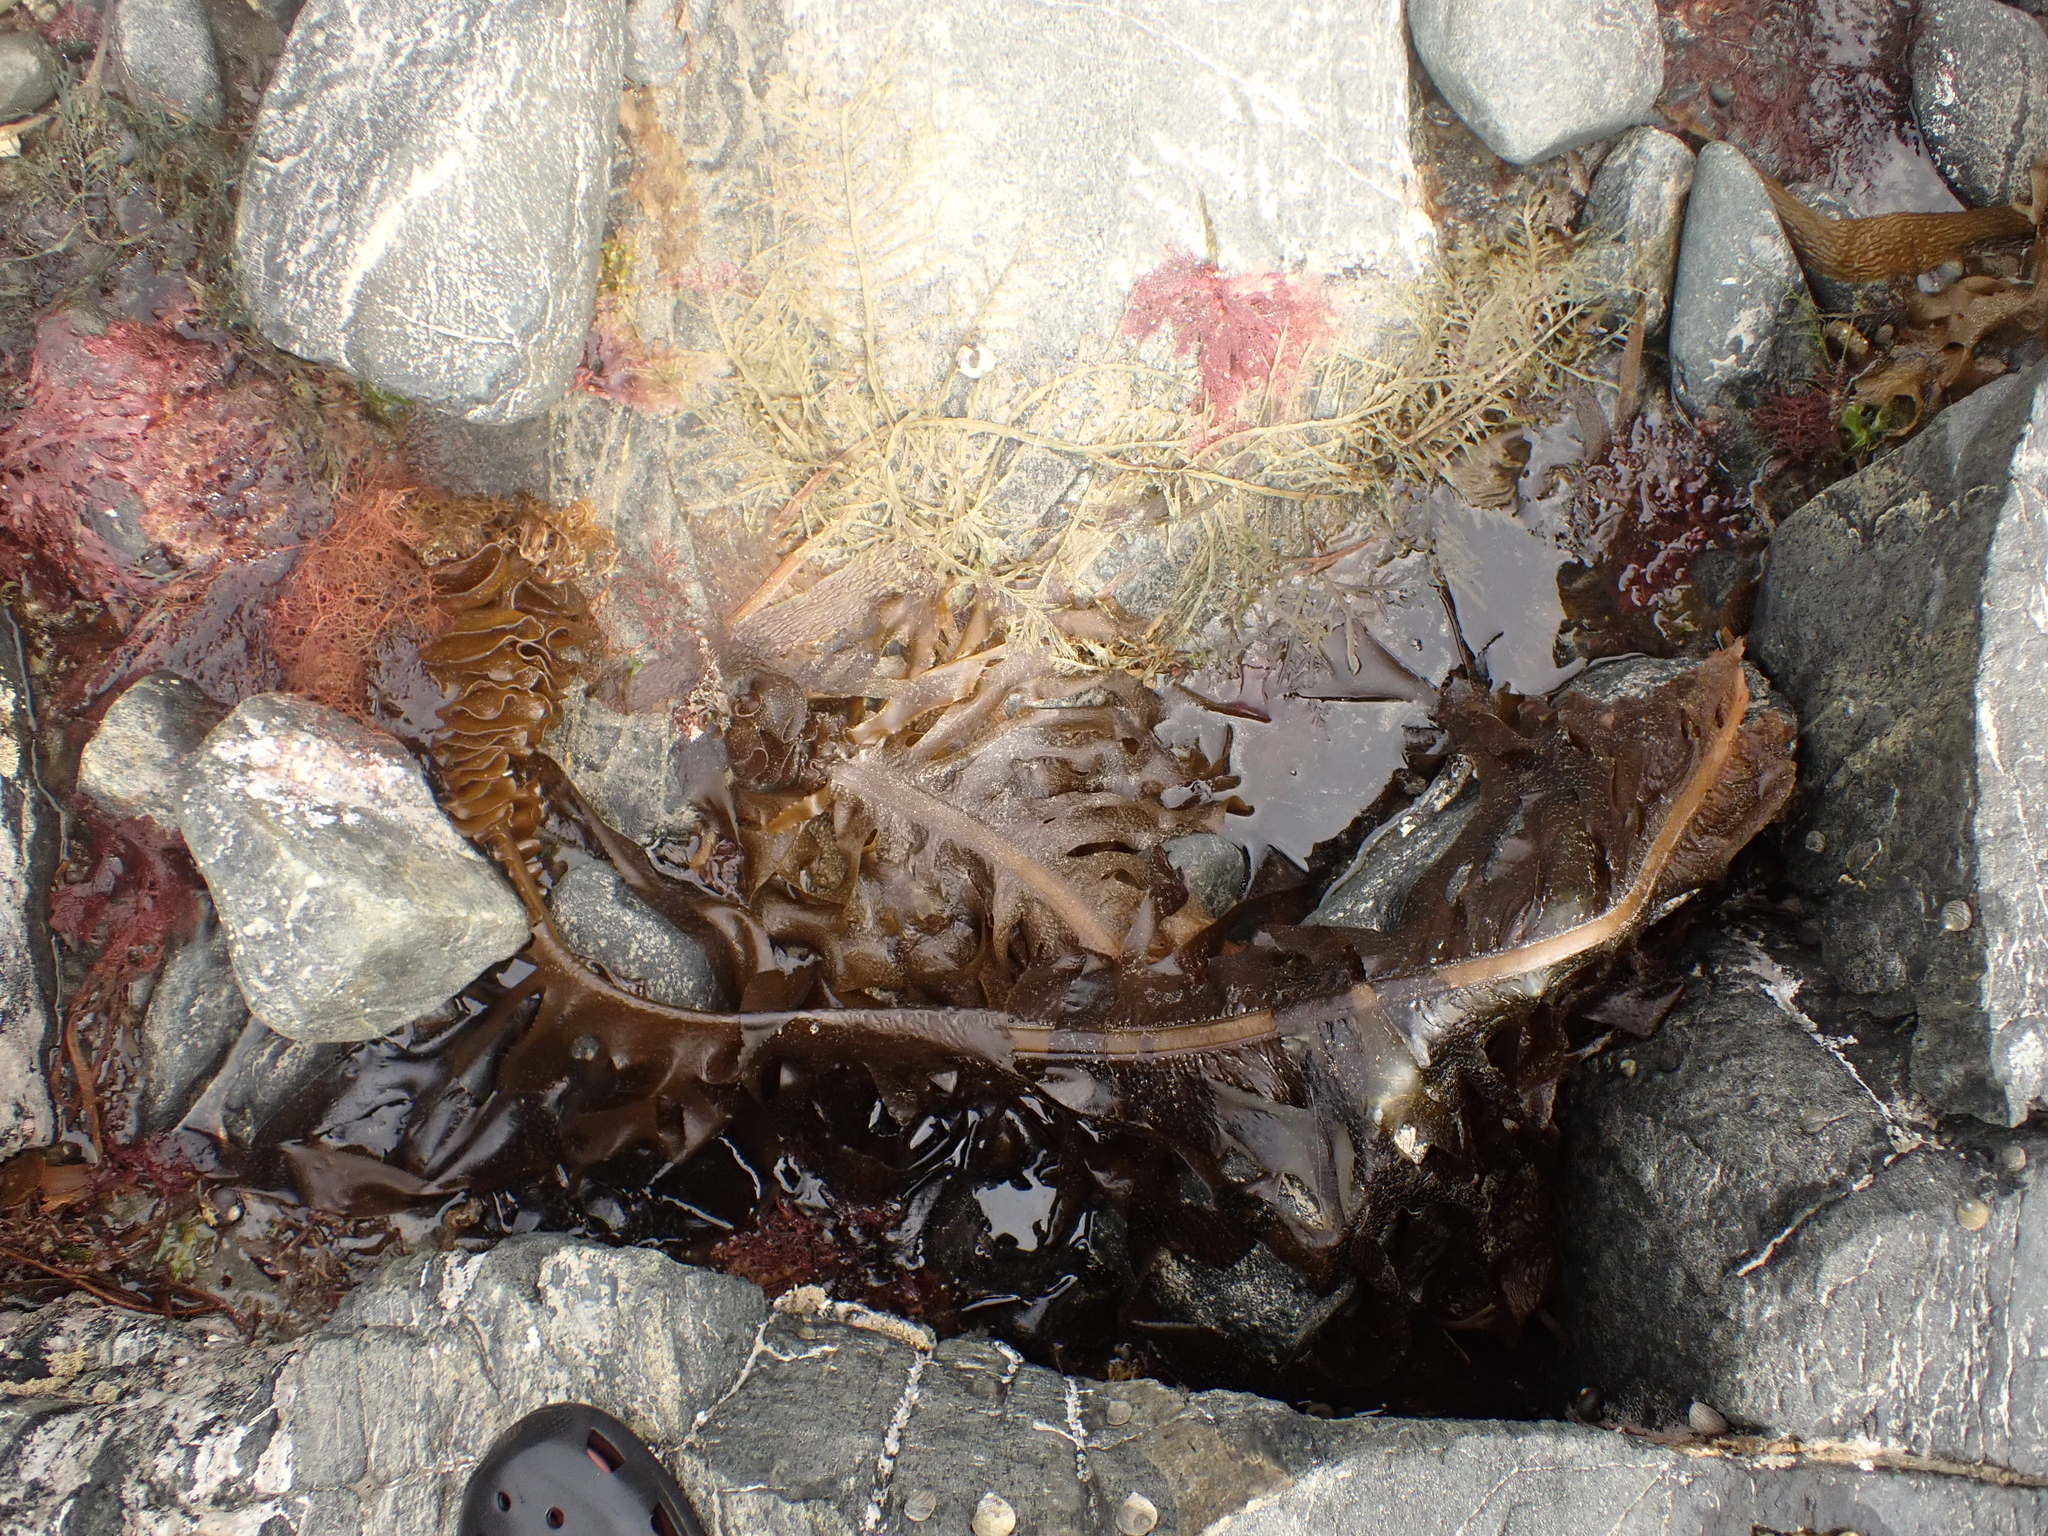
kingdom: Chromista
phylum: Ochrophyta
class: Phaeophyceae
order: Laminariales
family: Alariaceae
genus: Undaria
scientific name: Undaria pinnatifida
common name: Asian kelp
